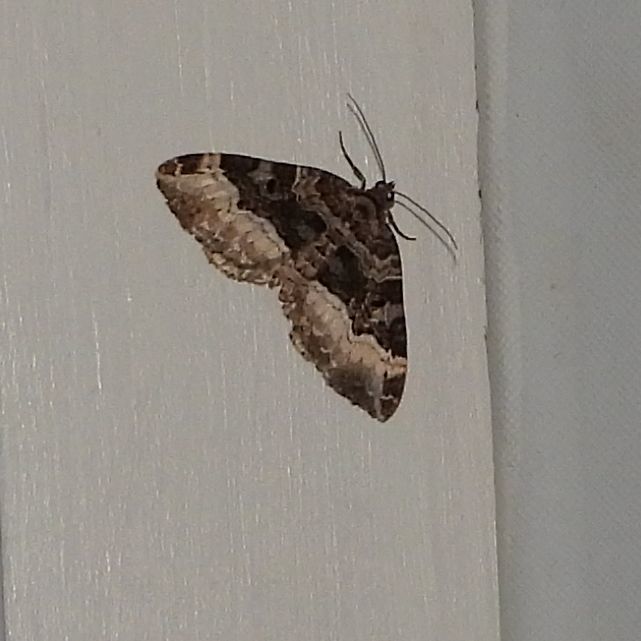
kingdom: Animalia
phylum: Arthropoda
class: Insecta
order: Lepidoptera
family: Geometridae
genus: Euphyia
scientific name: Euphyia intermediata
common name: Sharp-angled carpet
